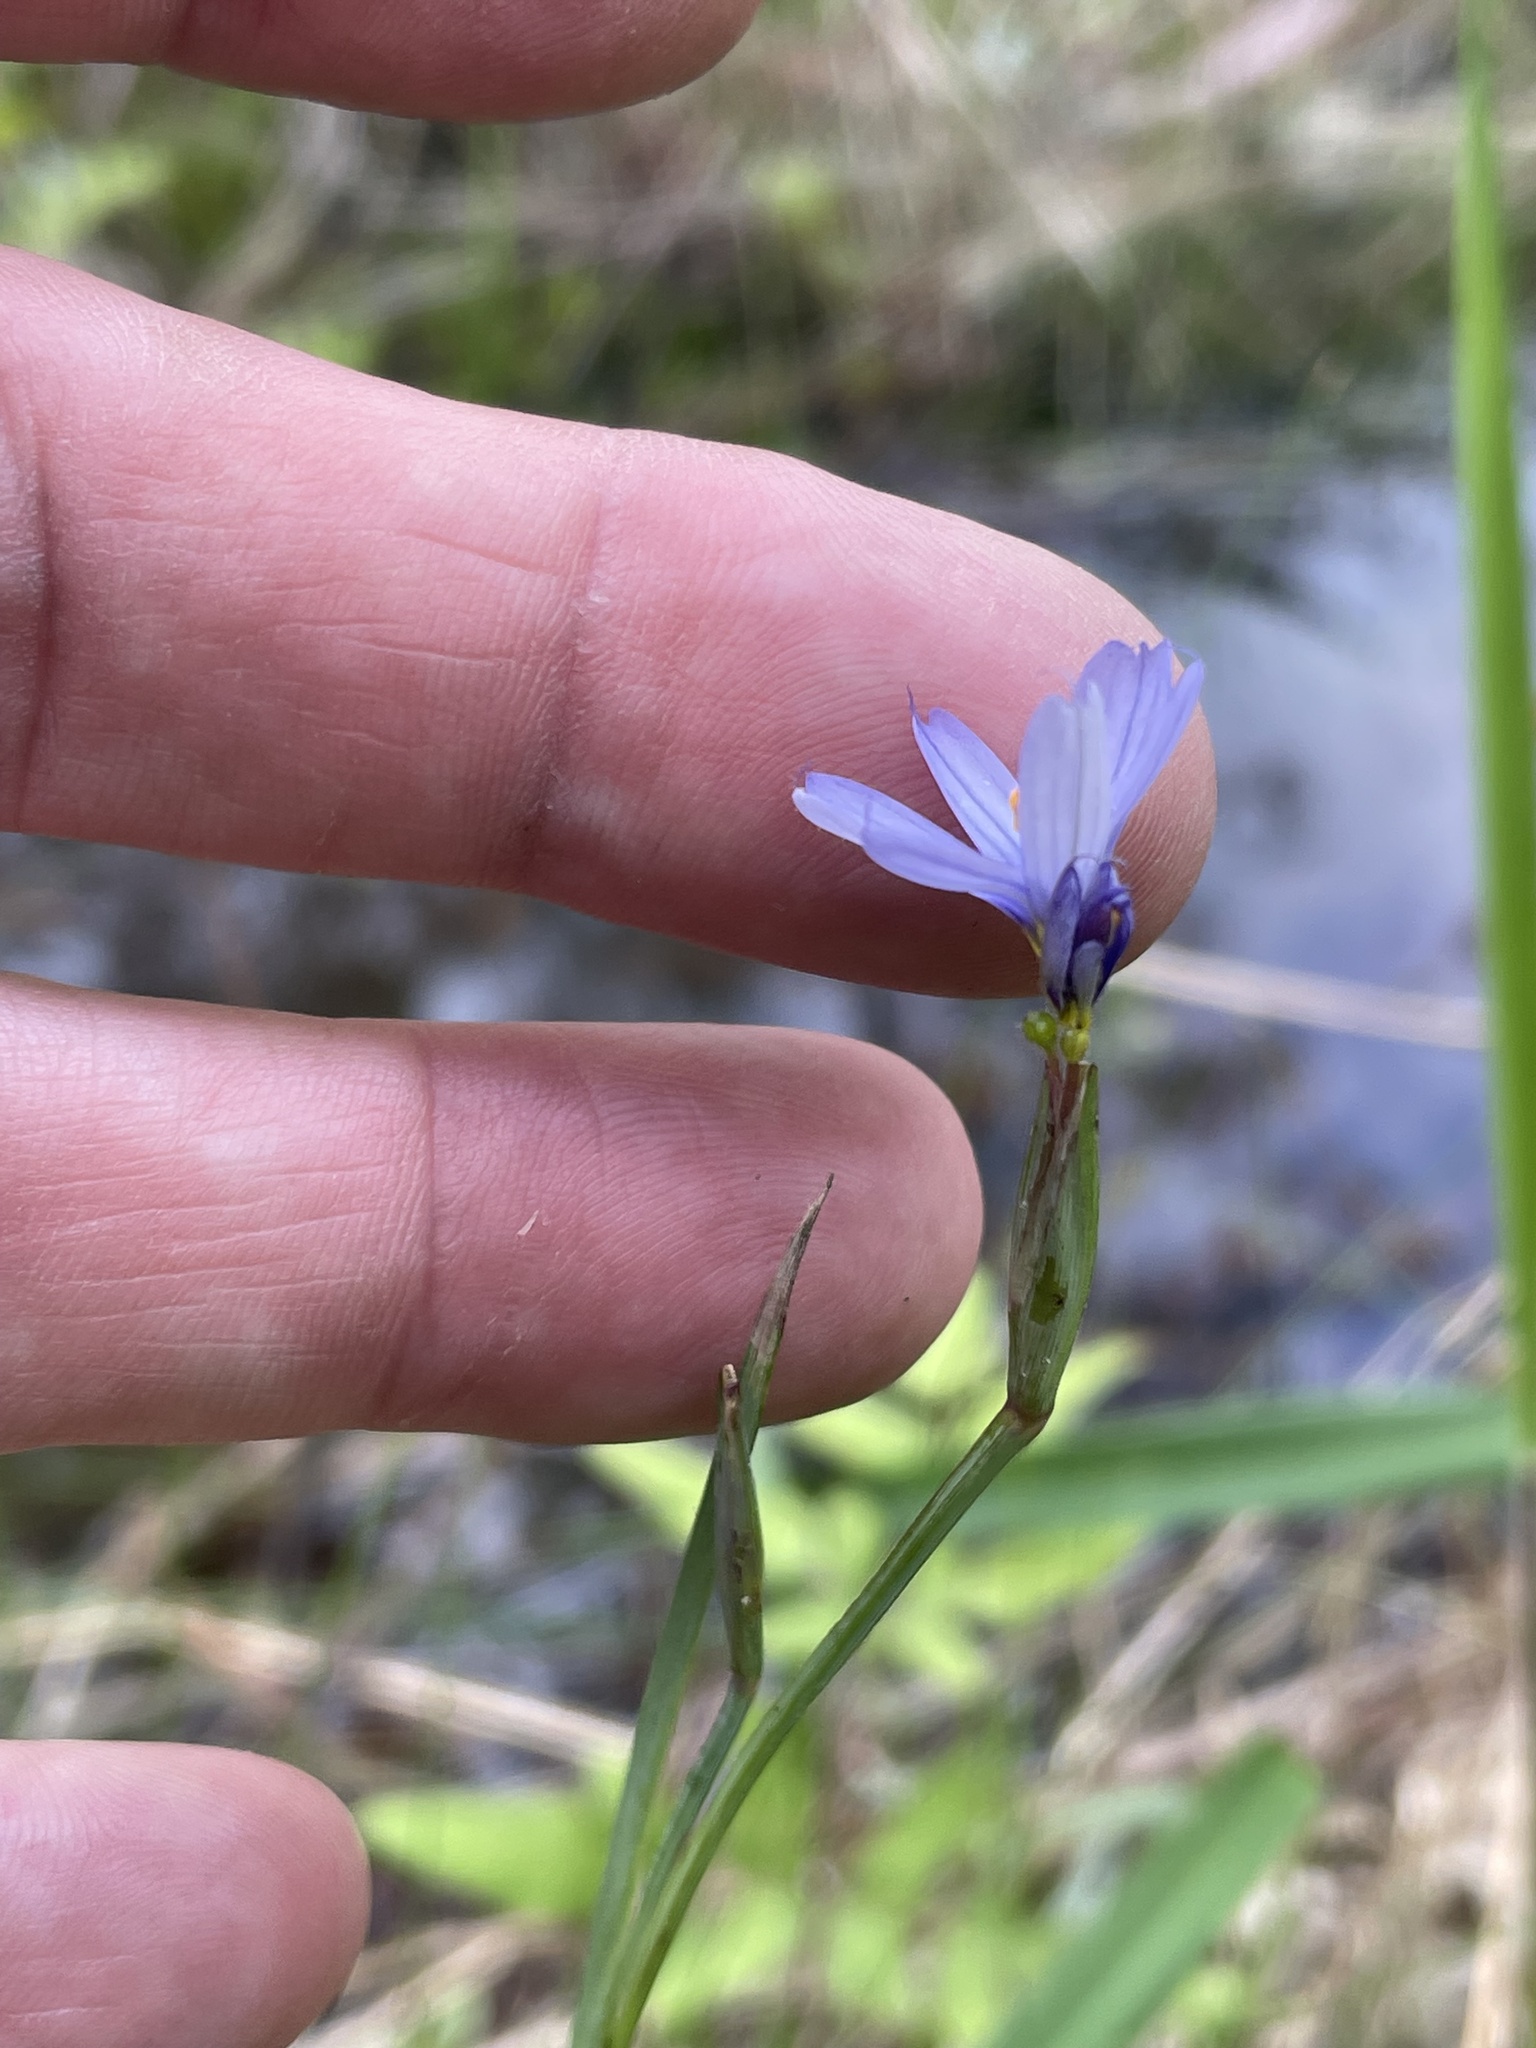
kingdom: Plantae
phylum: Tracheophyta
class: Liliopsida
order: Asparagales
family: Iridaceae
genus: Sisyrinchium
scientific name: Sisyrinchium angustifolium
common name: Narrow-leaf blue-eyed-grass
